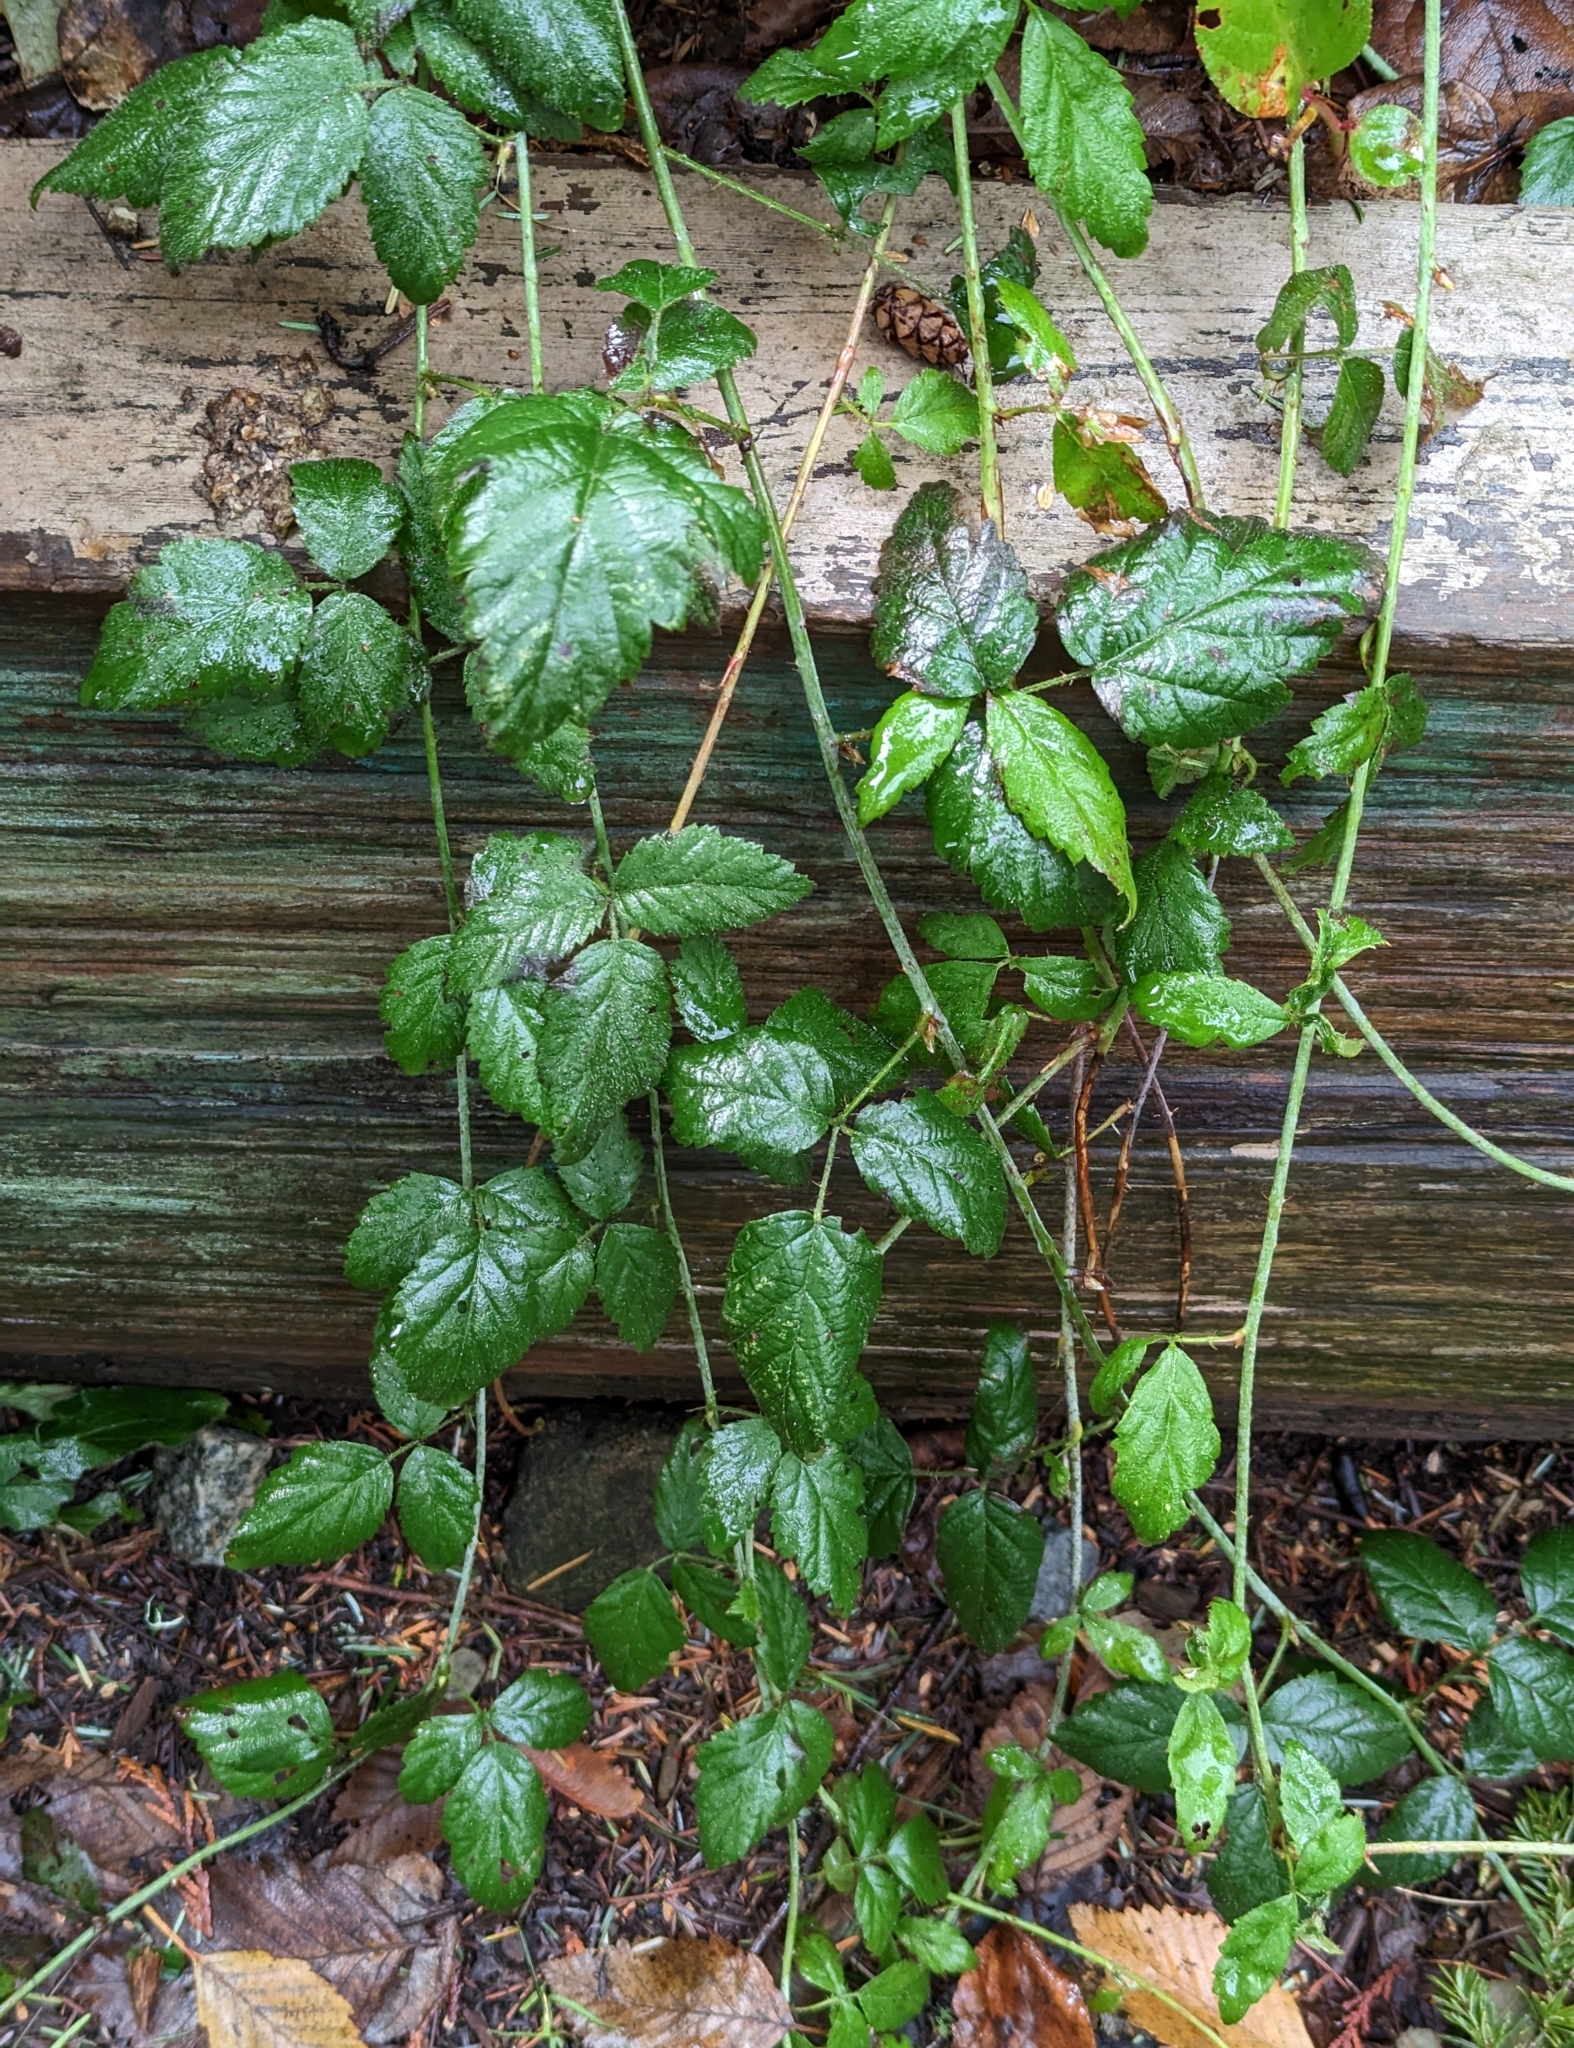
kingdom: Plantae
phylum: Tracheophyta
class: Magnoliopsida
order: Rosales
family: Rosaceae
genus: Rubus
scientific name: Rubus ursinus
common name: Pacific blackberry
